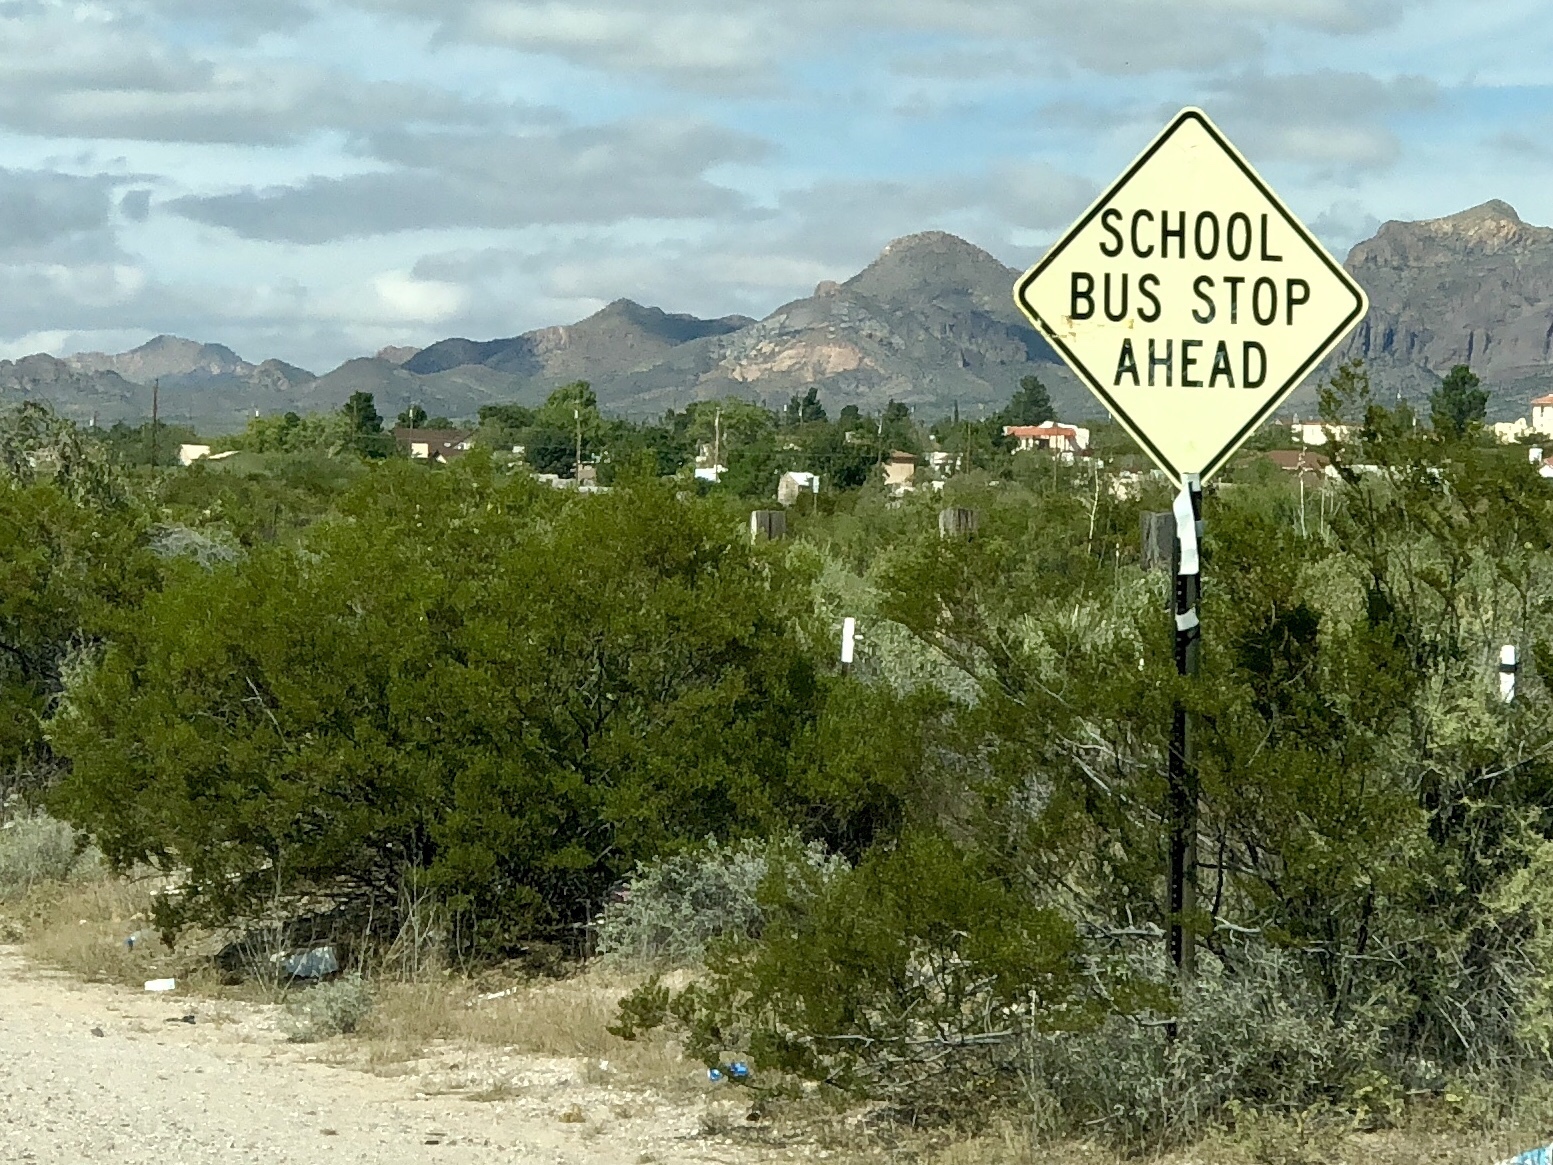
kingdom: Plantae
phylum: Tracheophyta
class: Magnoliopsida
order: Zygophyllales
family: Zygophyllaceae
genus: Larrea
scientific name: Larrea tridentata
